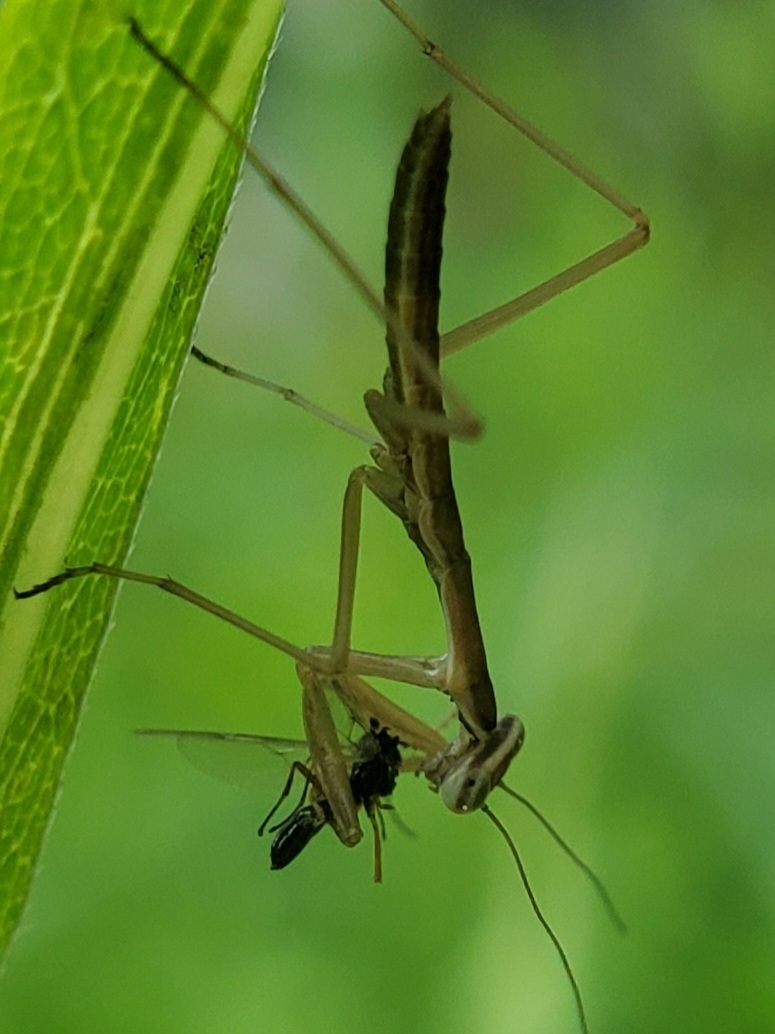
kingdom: Animalia
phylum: Arthropoda
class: Insecta
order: Mantodea
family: Mantidae
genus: Tenodera
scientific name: Tenodera sinensis
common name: Chinese mantis
